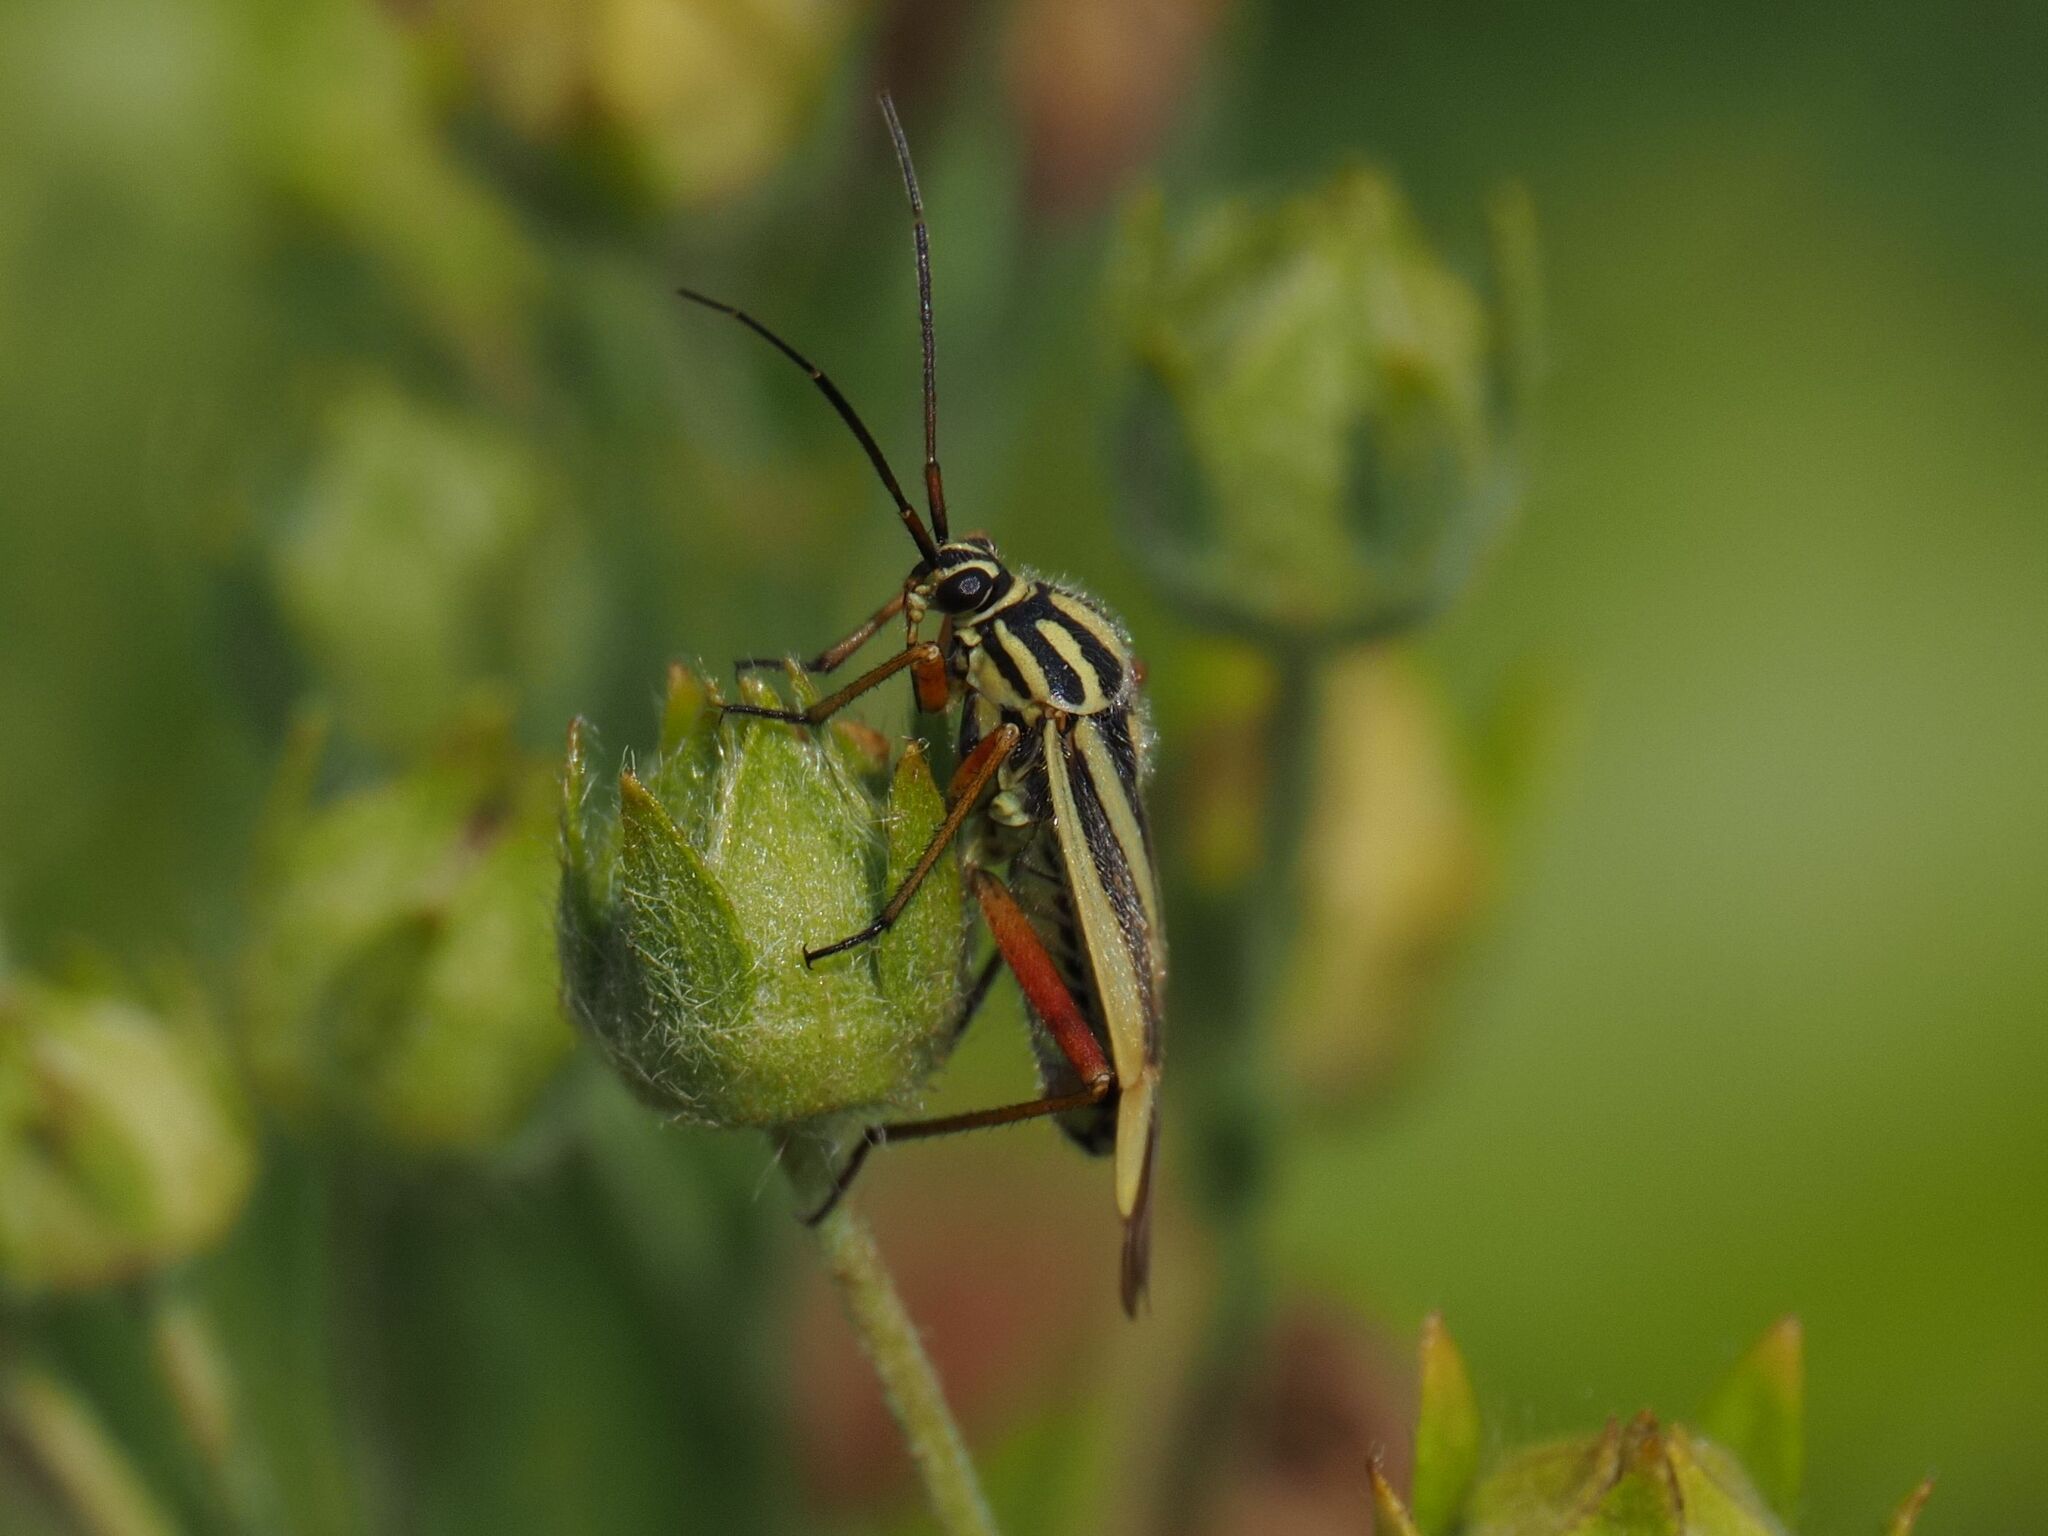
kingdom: Animalia
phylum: Arthropoda
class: Insecta
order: Hemiptera
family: Miridae
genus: Brachycoleus
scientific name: Brachycoleus decolor
